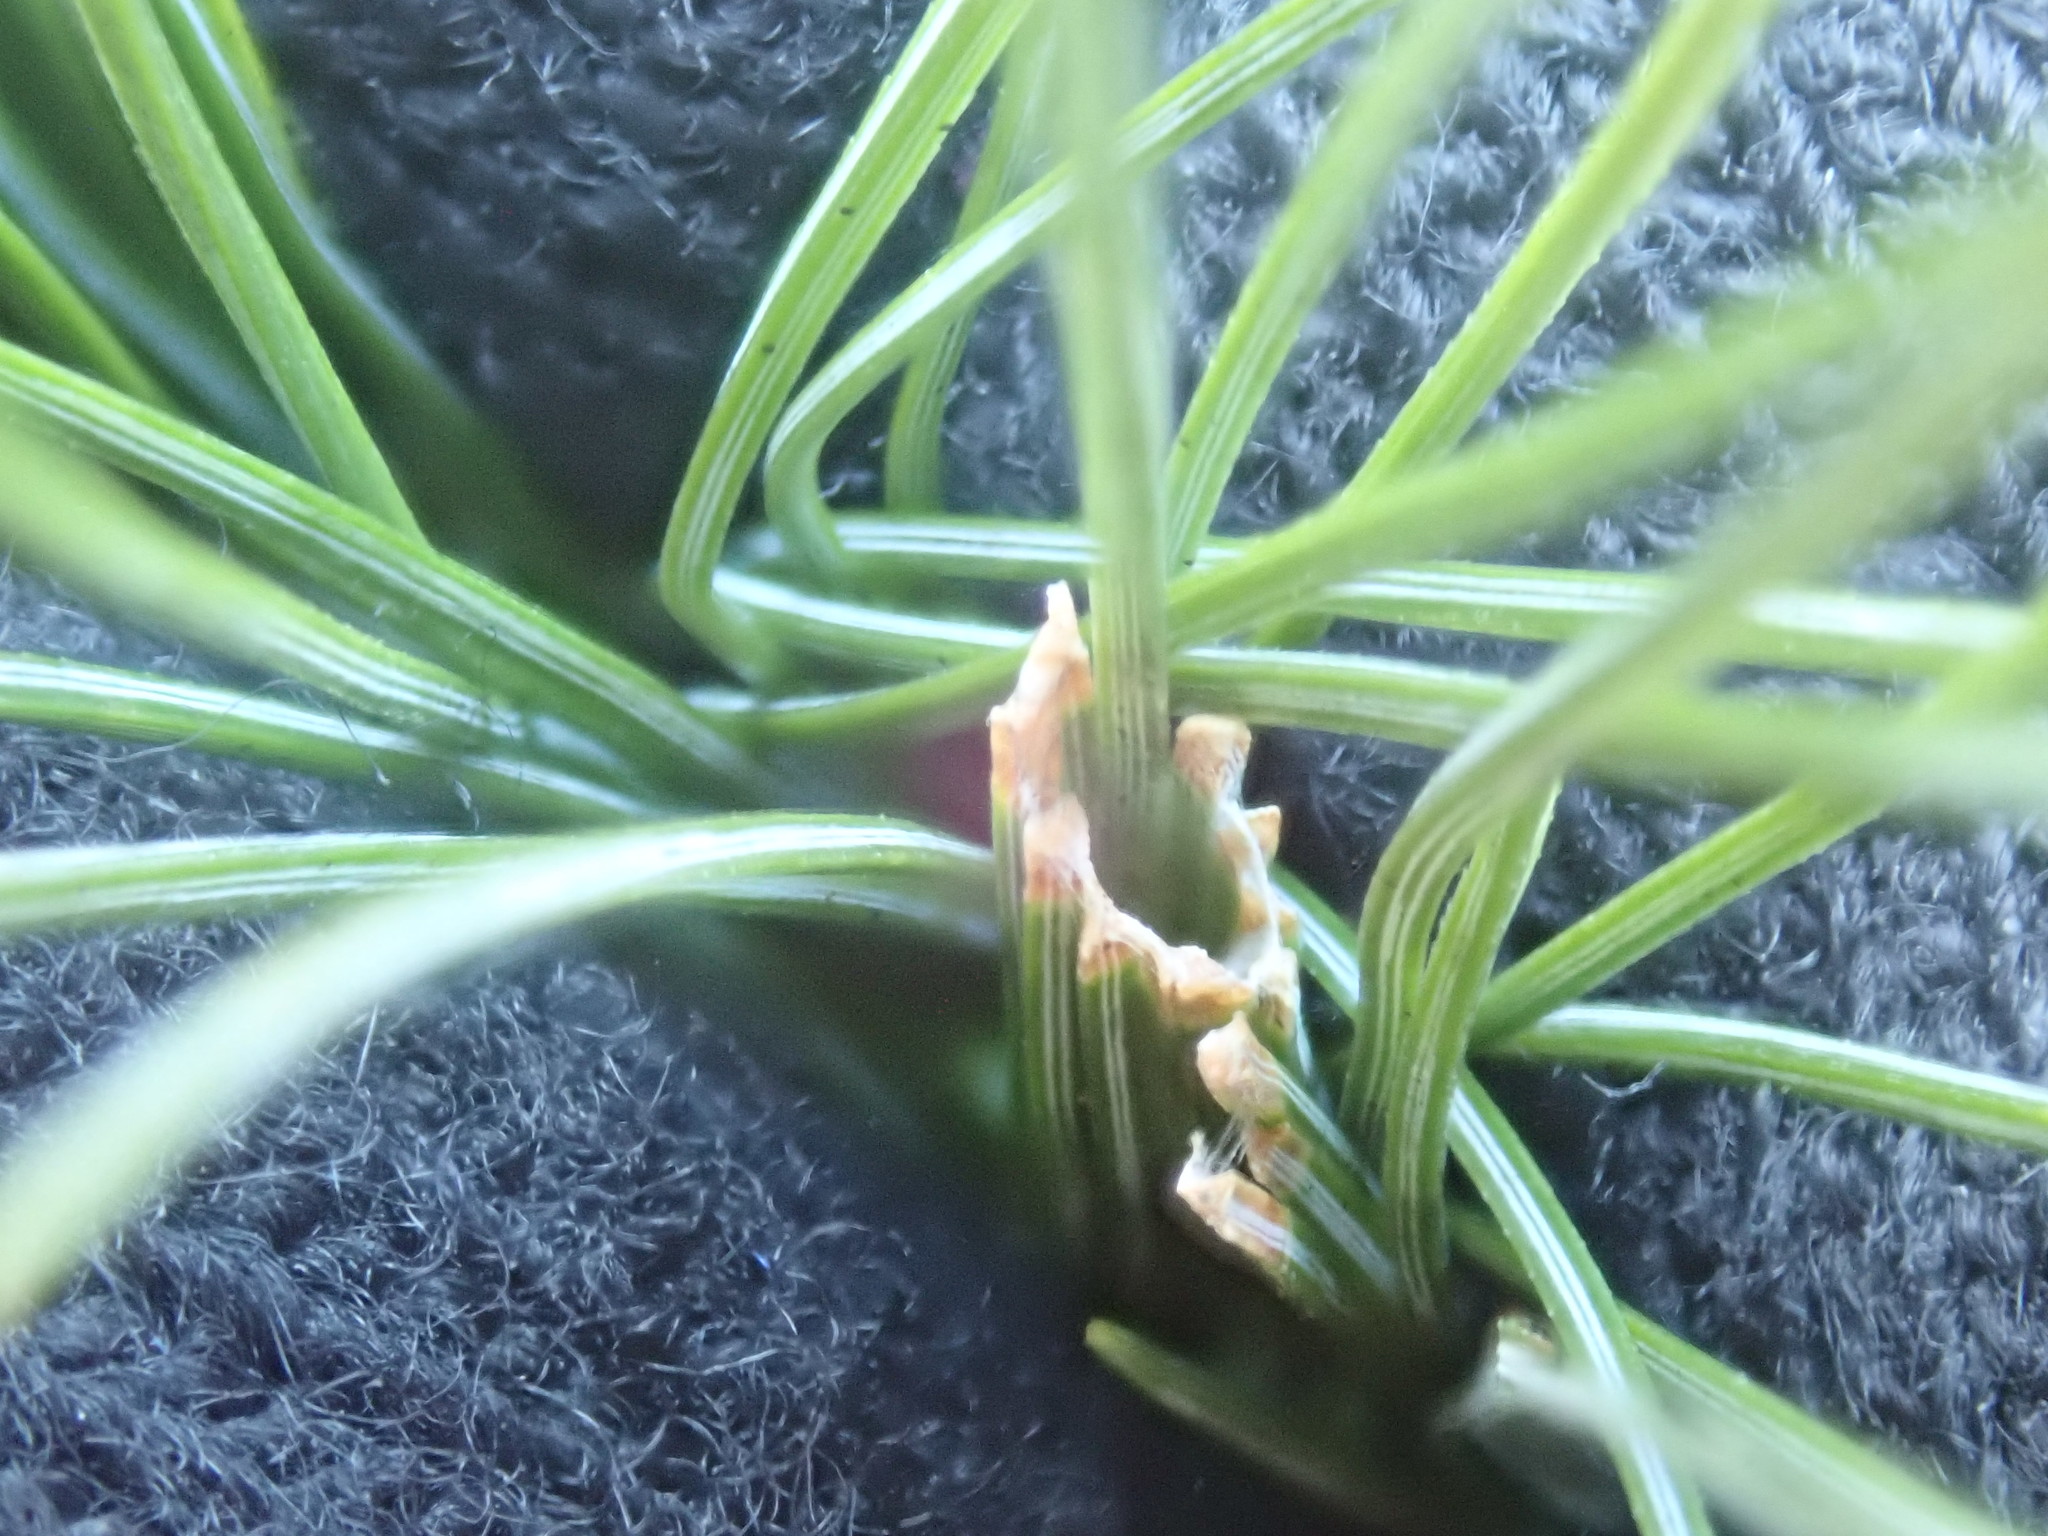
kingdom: Animalia
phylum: Arthropoda
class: Insecta
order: Lepidoptera
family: Tortricidae
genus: Argyrotaenia
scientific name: Argyrotaenia pinatubana
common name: Pine tube moth
